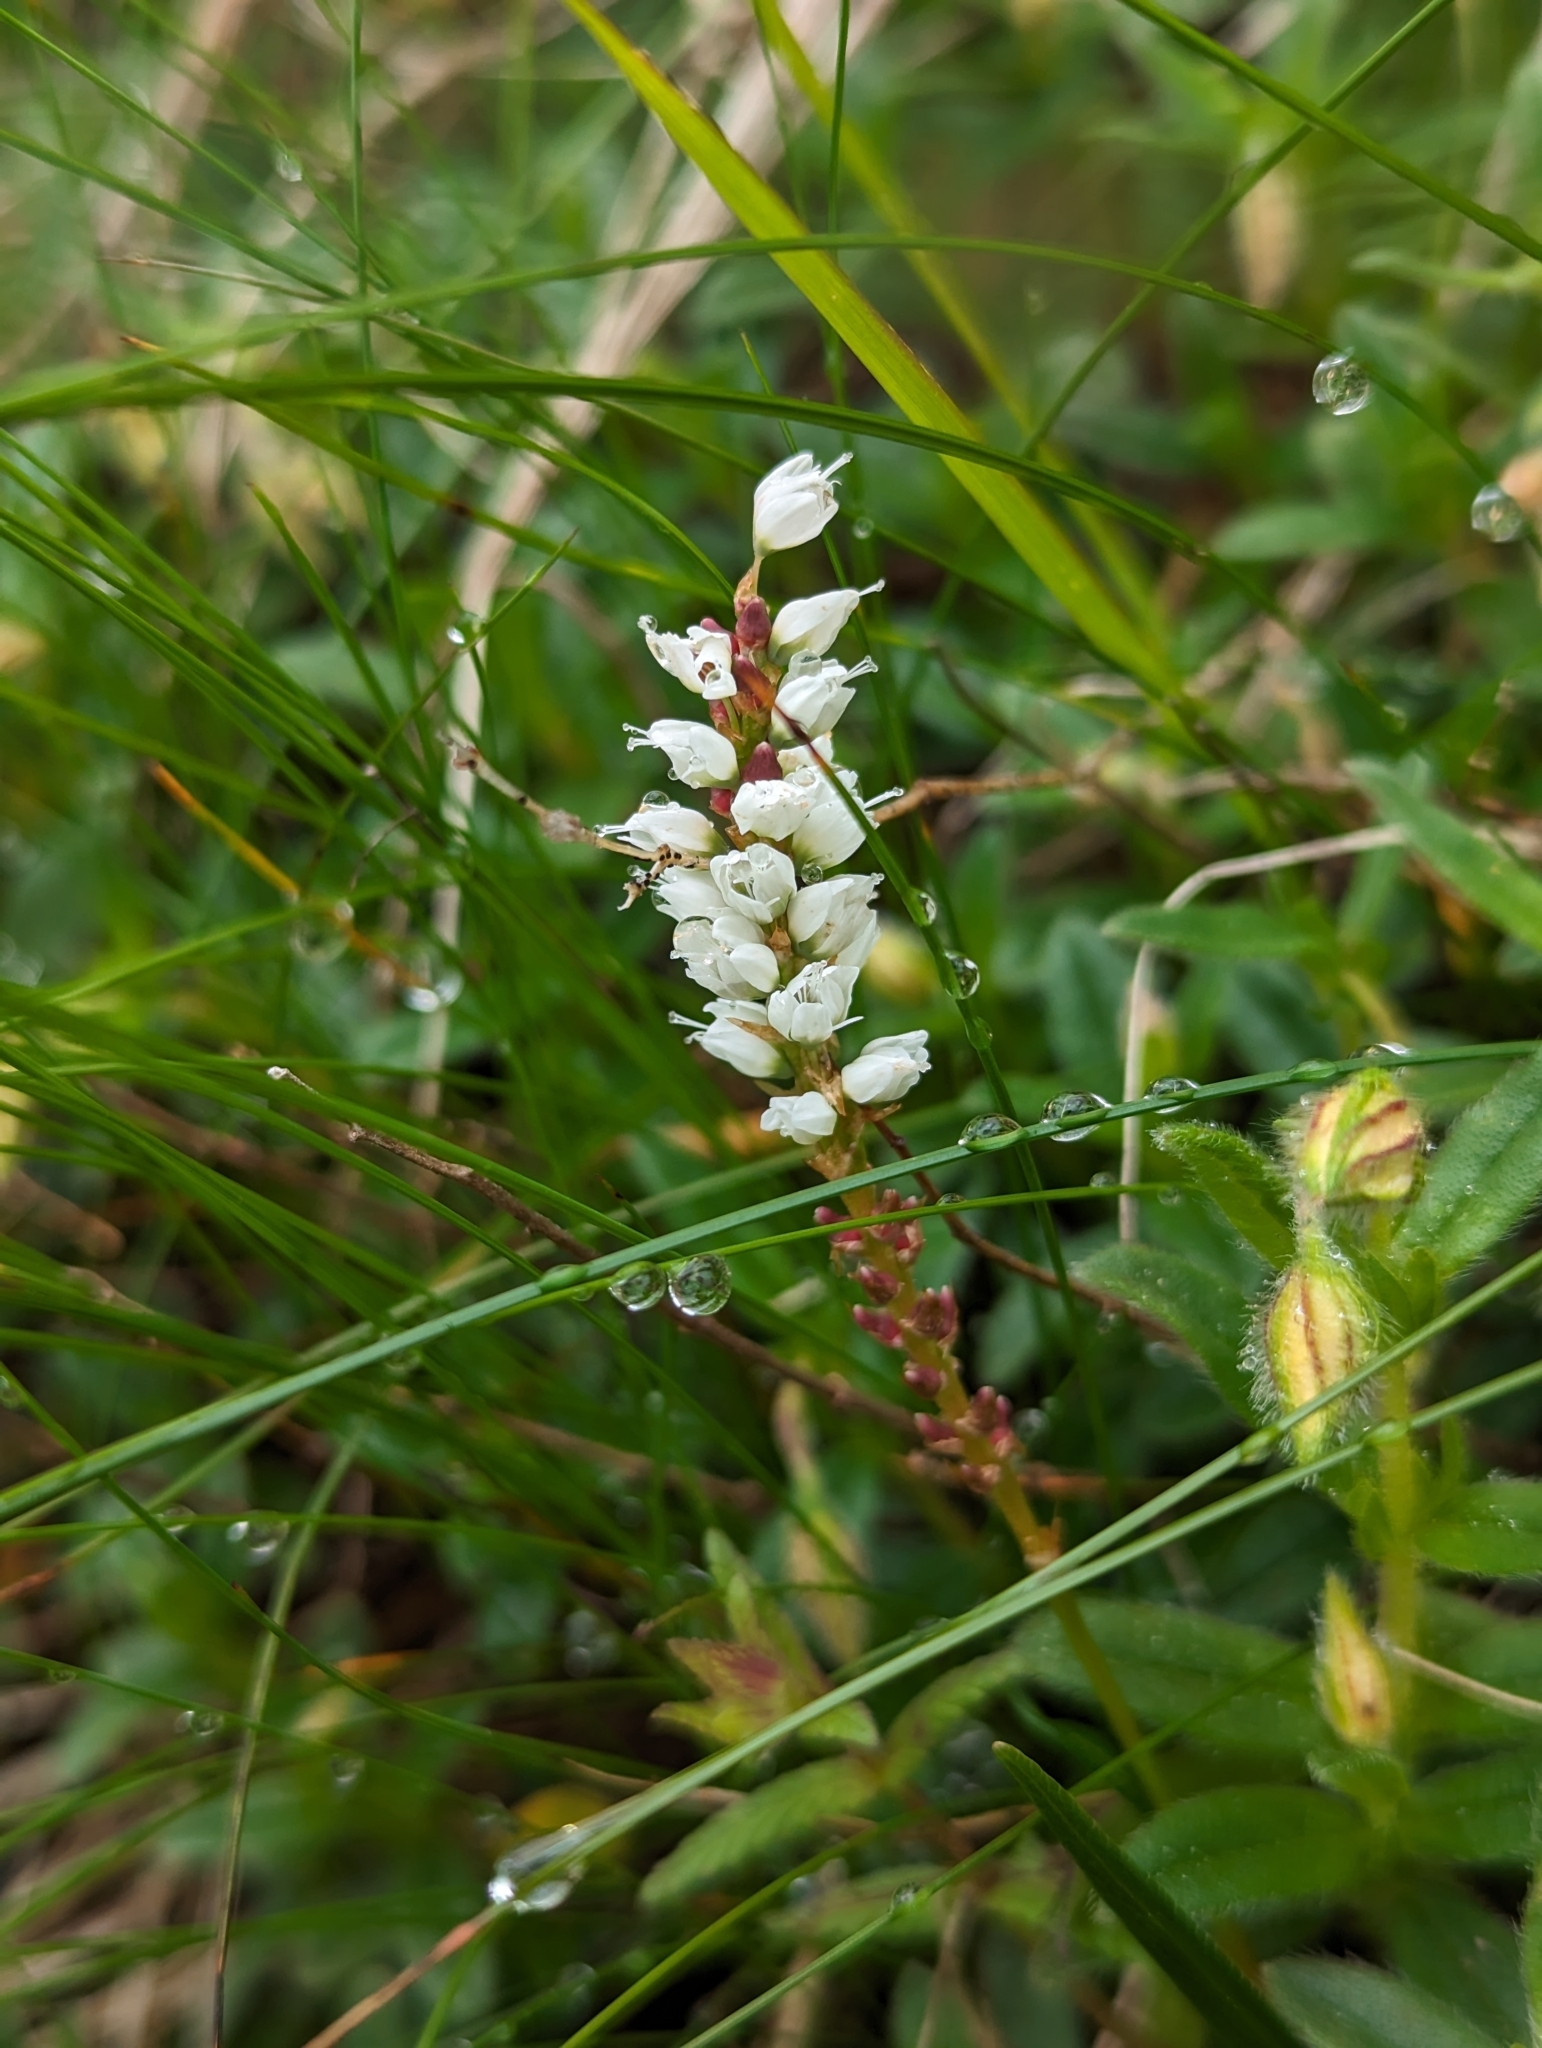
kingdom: Plantae
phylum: Tracheophyta
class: Magnoliopsida
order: Caryophyllales
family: Polygonaceae
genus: Bistorta
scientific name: Bistorta vivipara
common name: Alpine bistort
